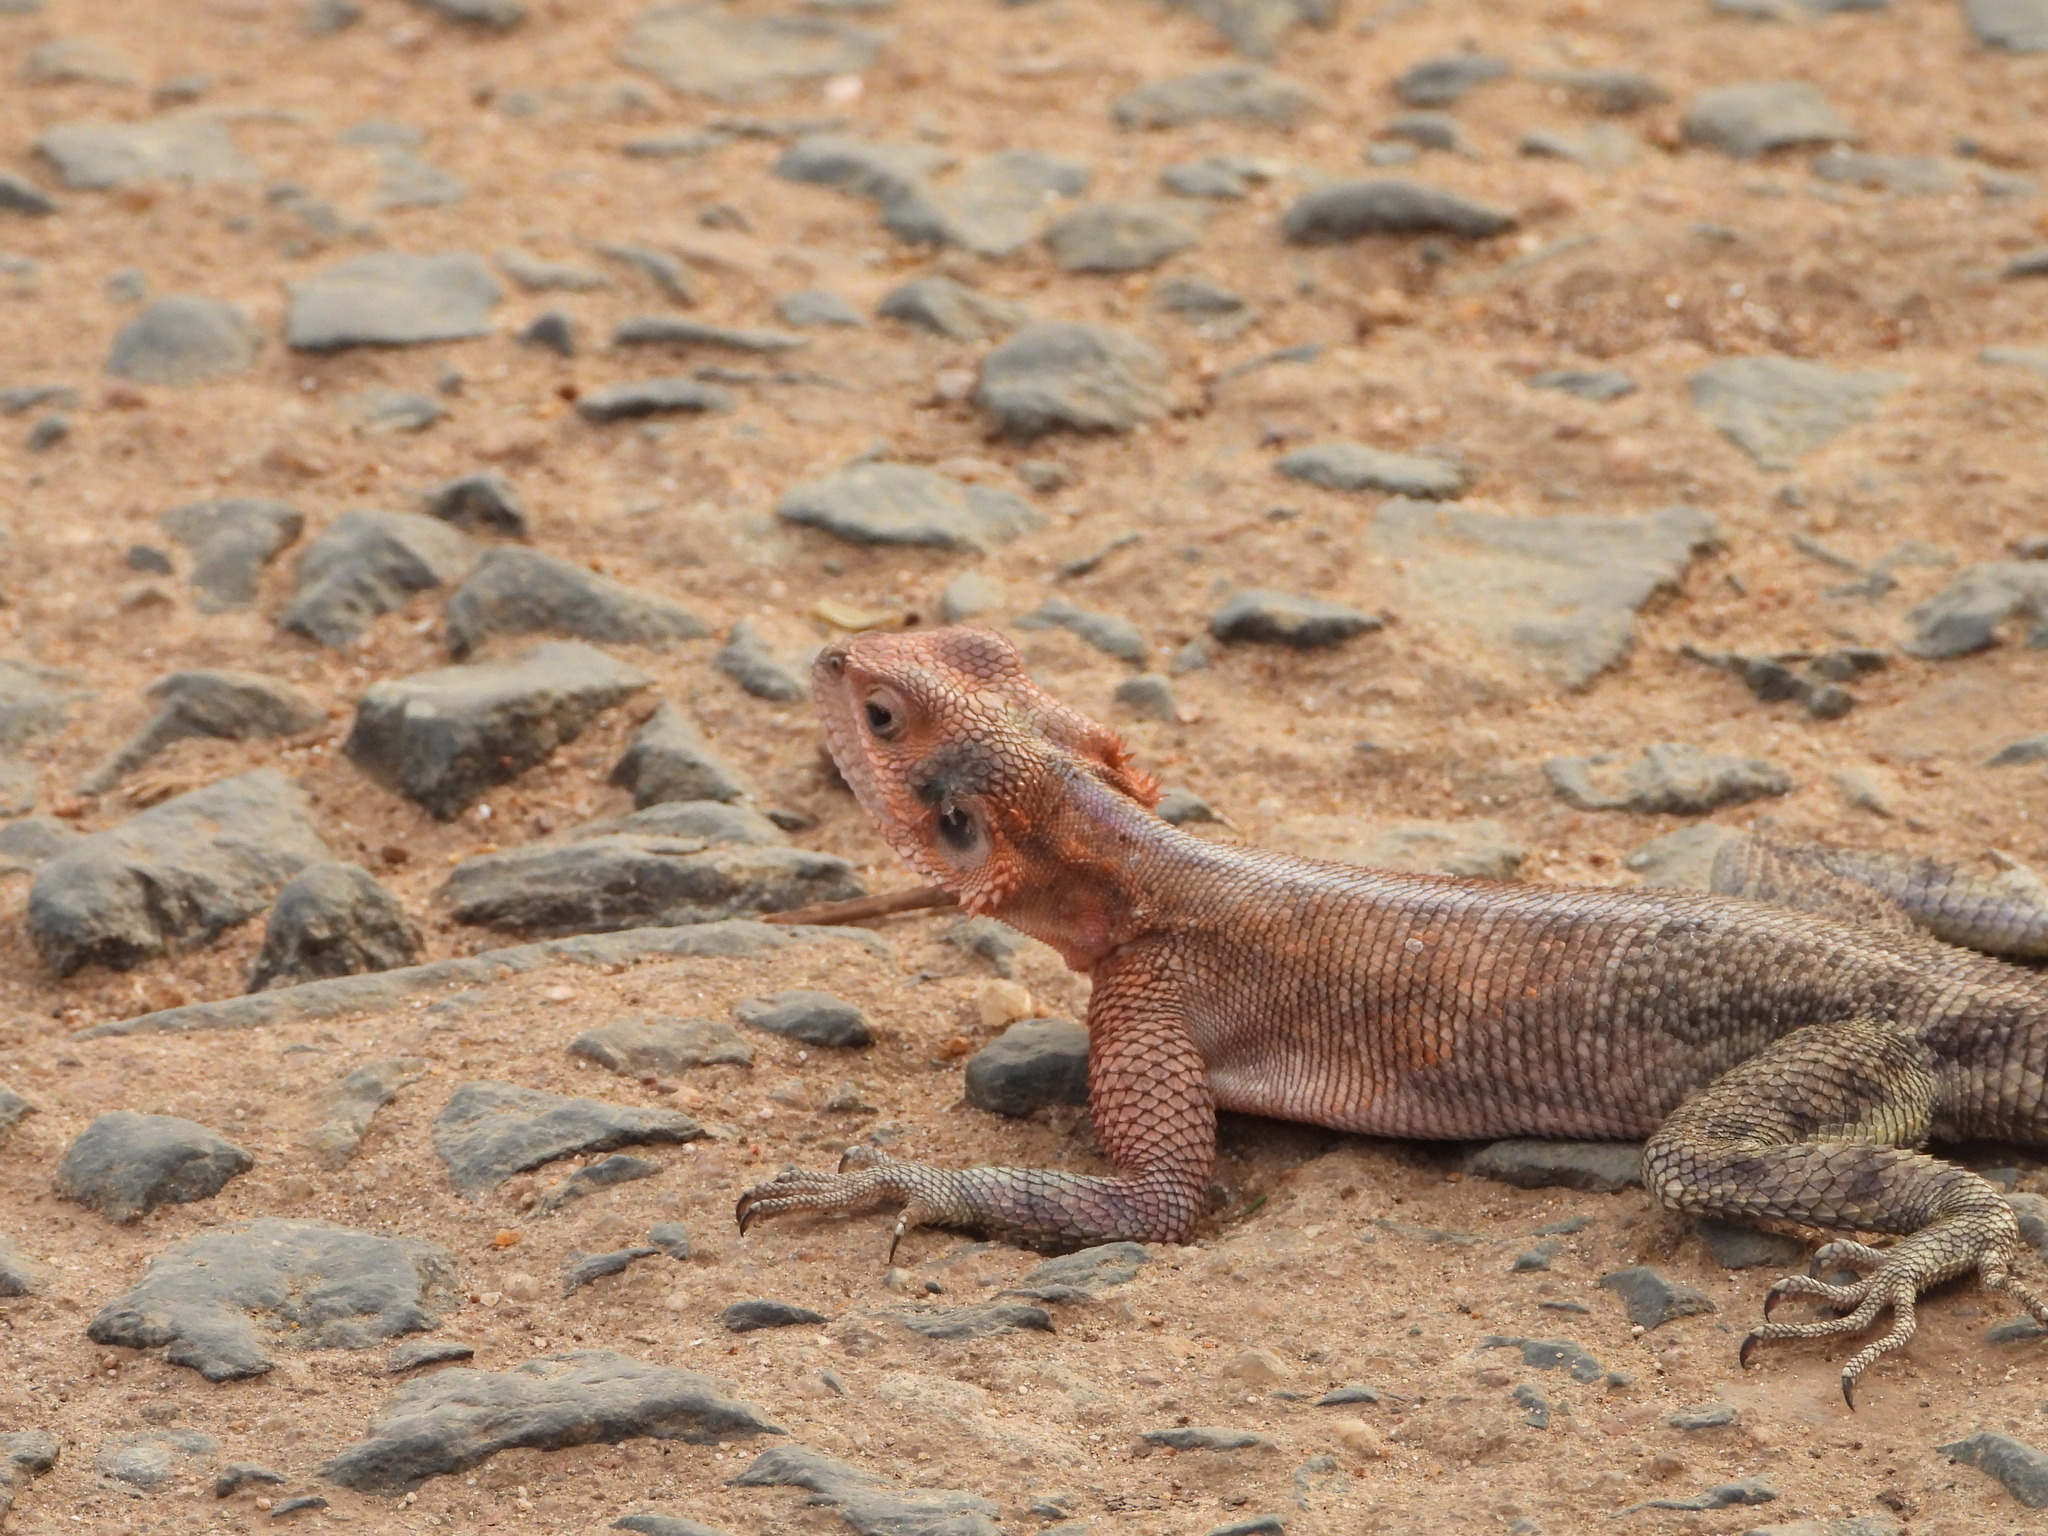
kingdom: Animalia
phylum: Chordata
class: Squamata
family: Agamidae
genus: Agama
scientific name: Agama mwanzae
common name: Mwanza flat-headed agama
